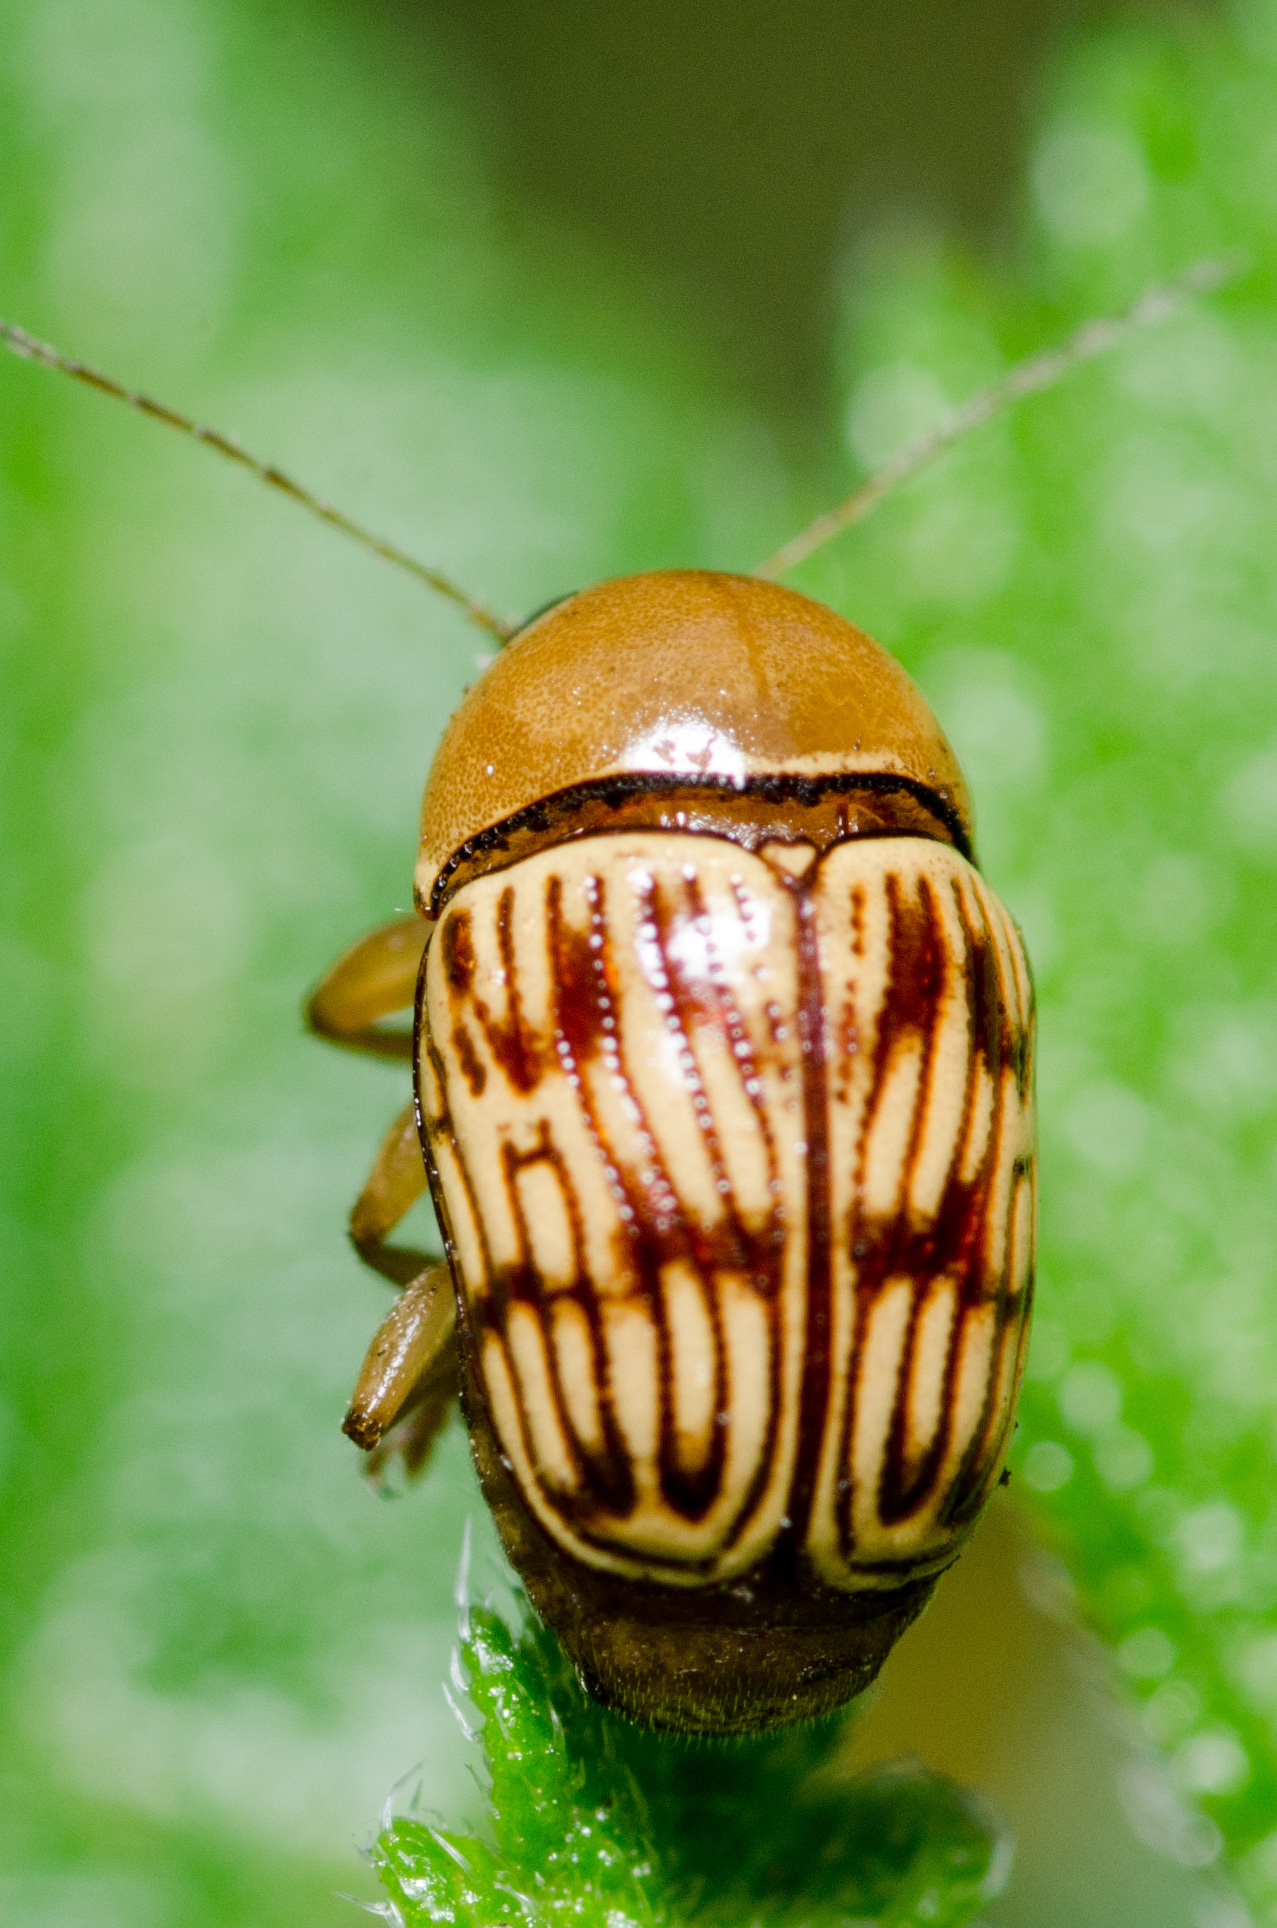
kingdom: Animalia
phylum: Arthropoda
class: Insecta
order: Coleoptera
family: Chrysomelidae
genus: Cryptocephalus
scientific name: Cryptocephalus fulguratus
